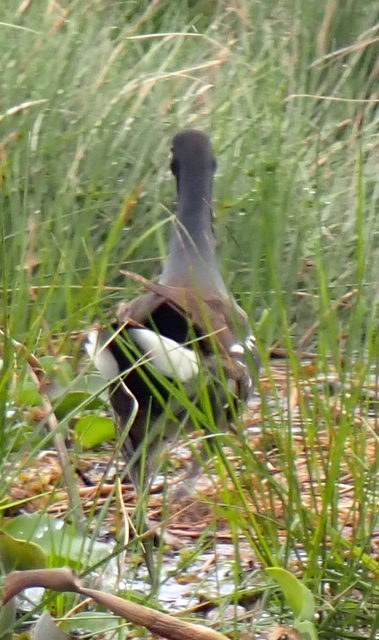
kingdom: Animalia
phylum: Chordata
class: Aves
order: Gruiformes
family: Rallidae
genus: Gallinula
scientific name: Gallinula chloropus
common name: Common moorhen
